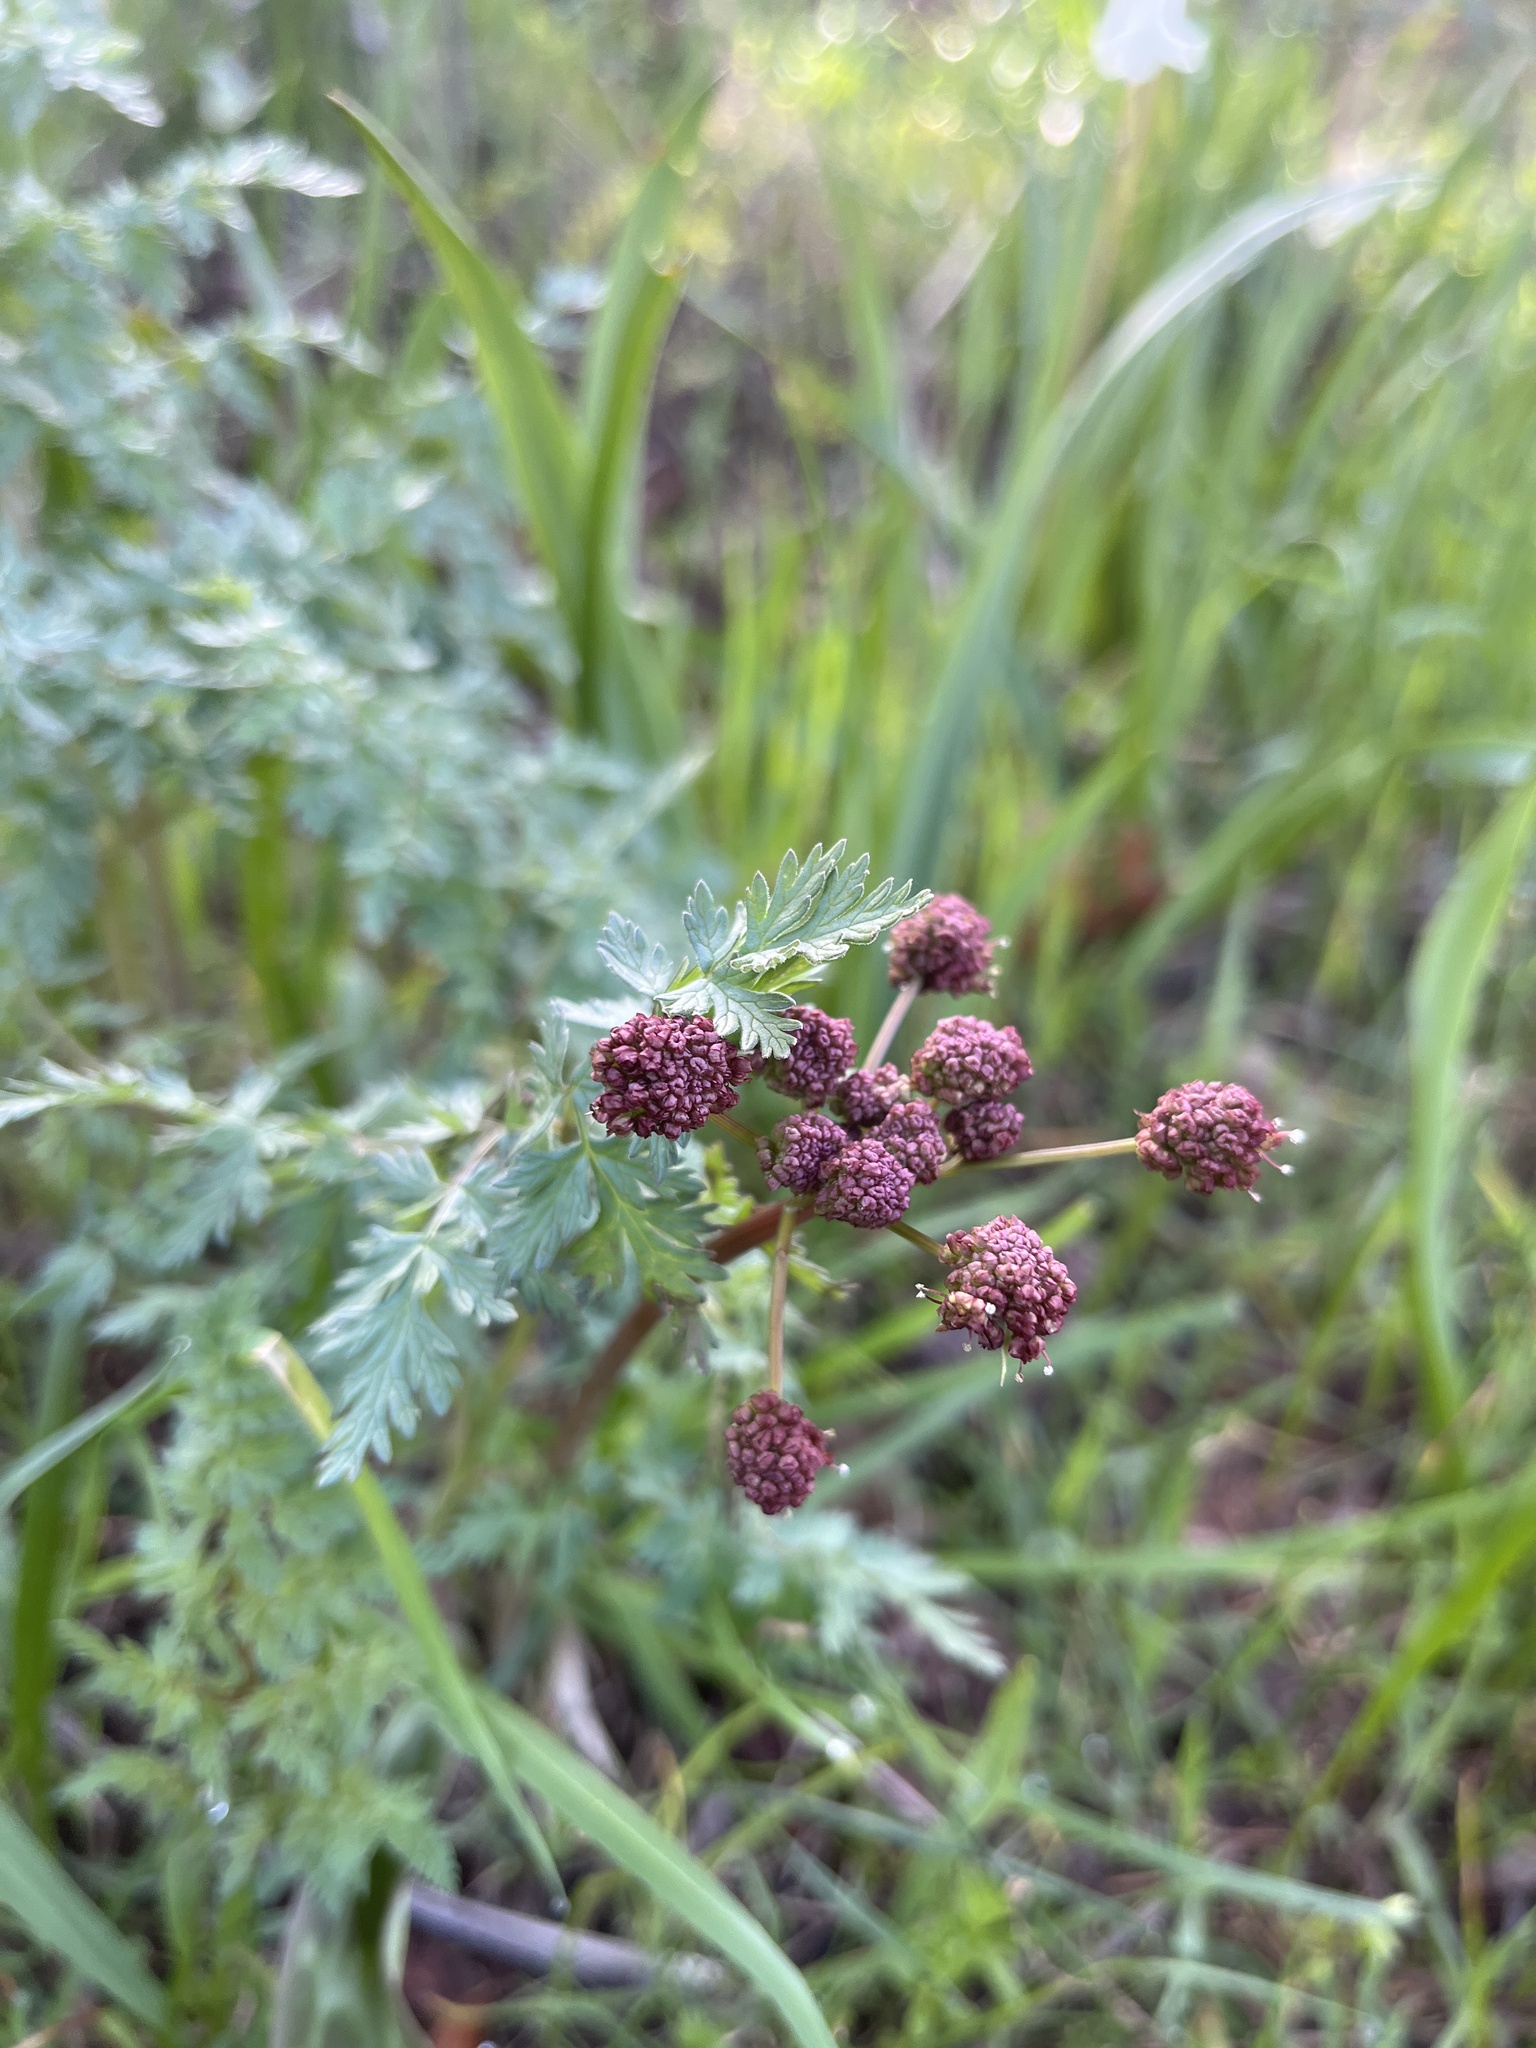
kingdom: Plantae
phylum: Tracheophyta
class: Magnoliopsida
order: Apiales
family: Apiaceae
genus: Lomatium
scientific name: Lomatium dissectum
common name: Lomatium
